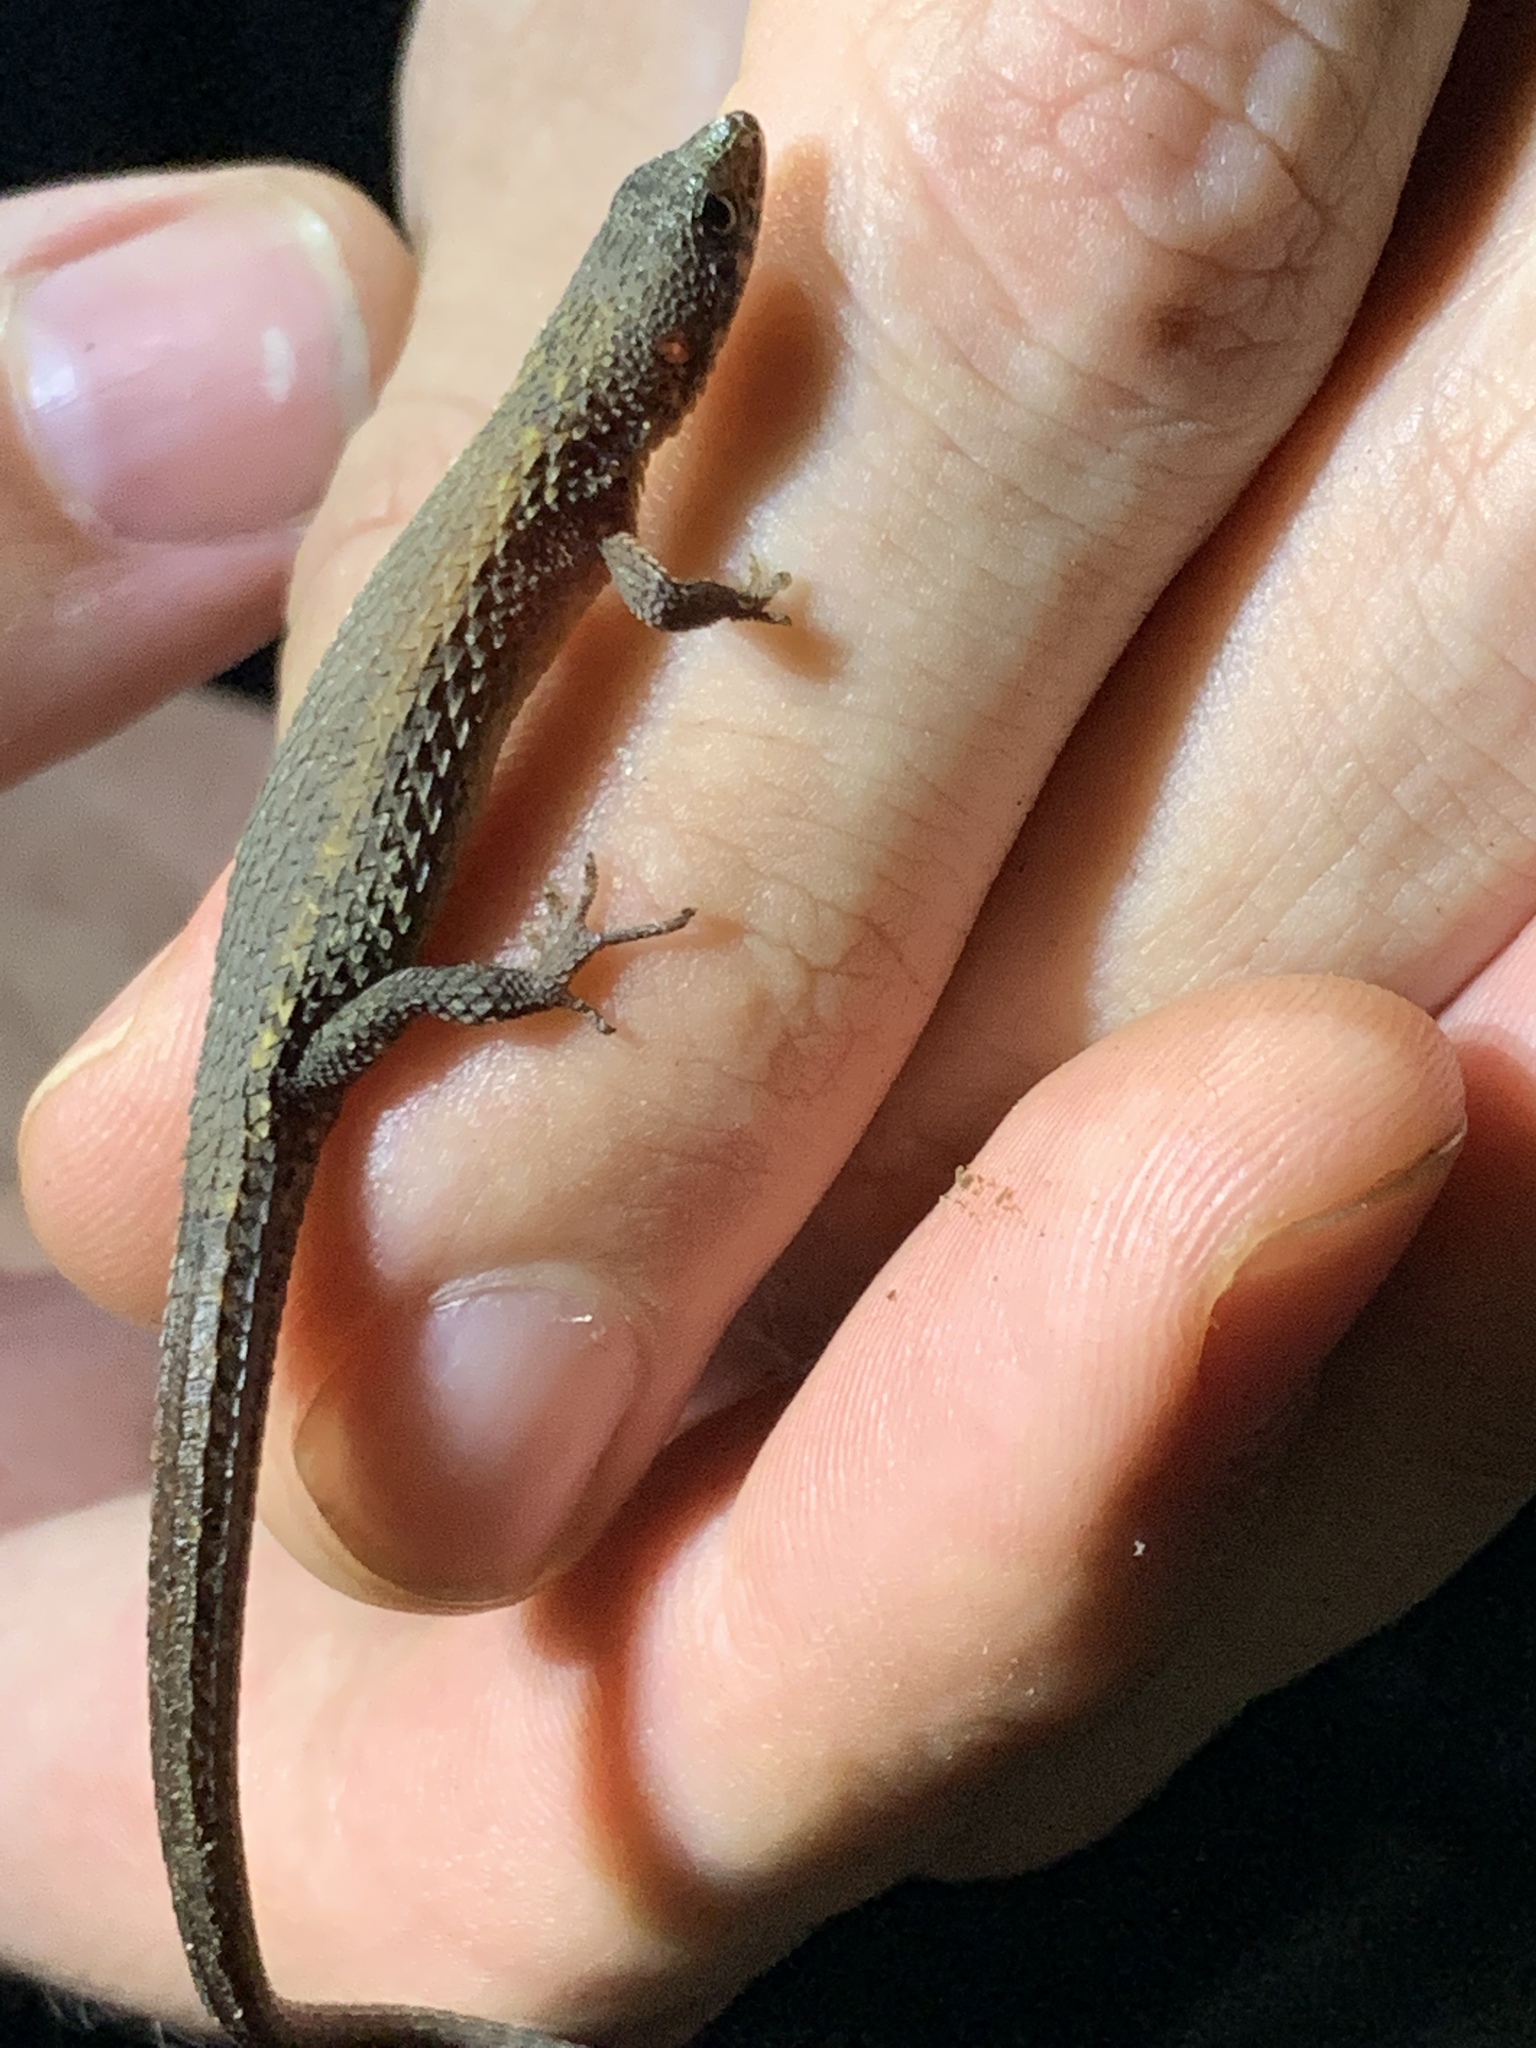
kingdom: Animalia
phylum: Chordata
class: Squamata
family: Gymnophthalmidae
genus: Loxopholis
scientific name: Loxopholis southi
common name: Northern spectacled lizard
